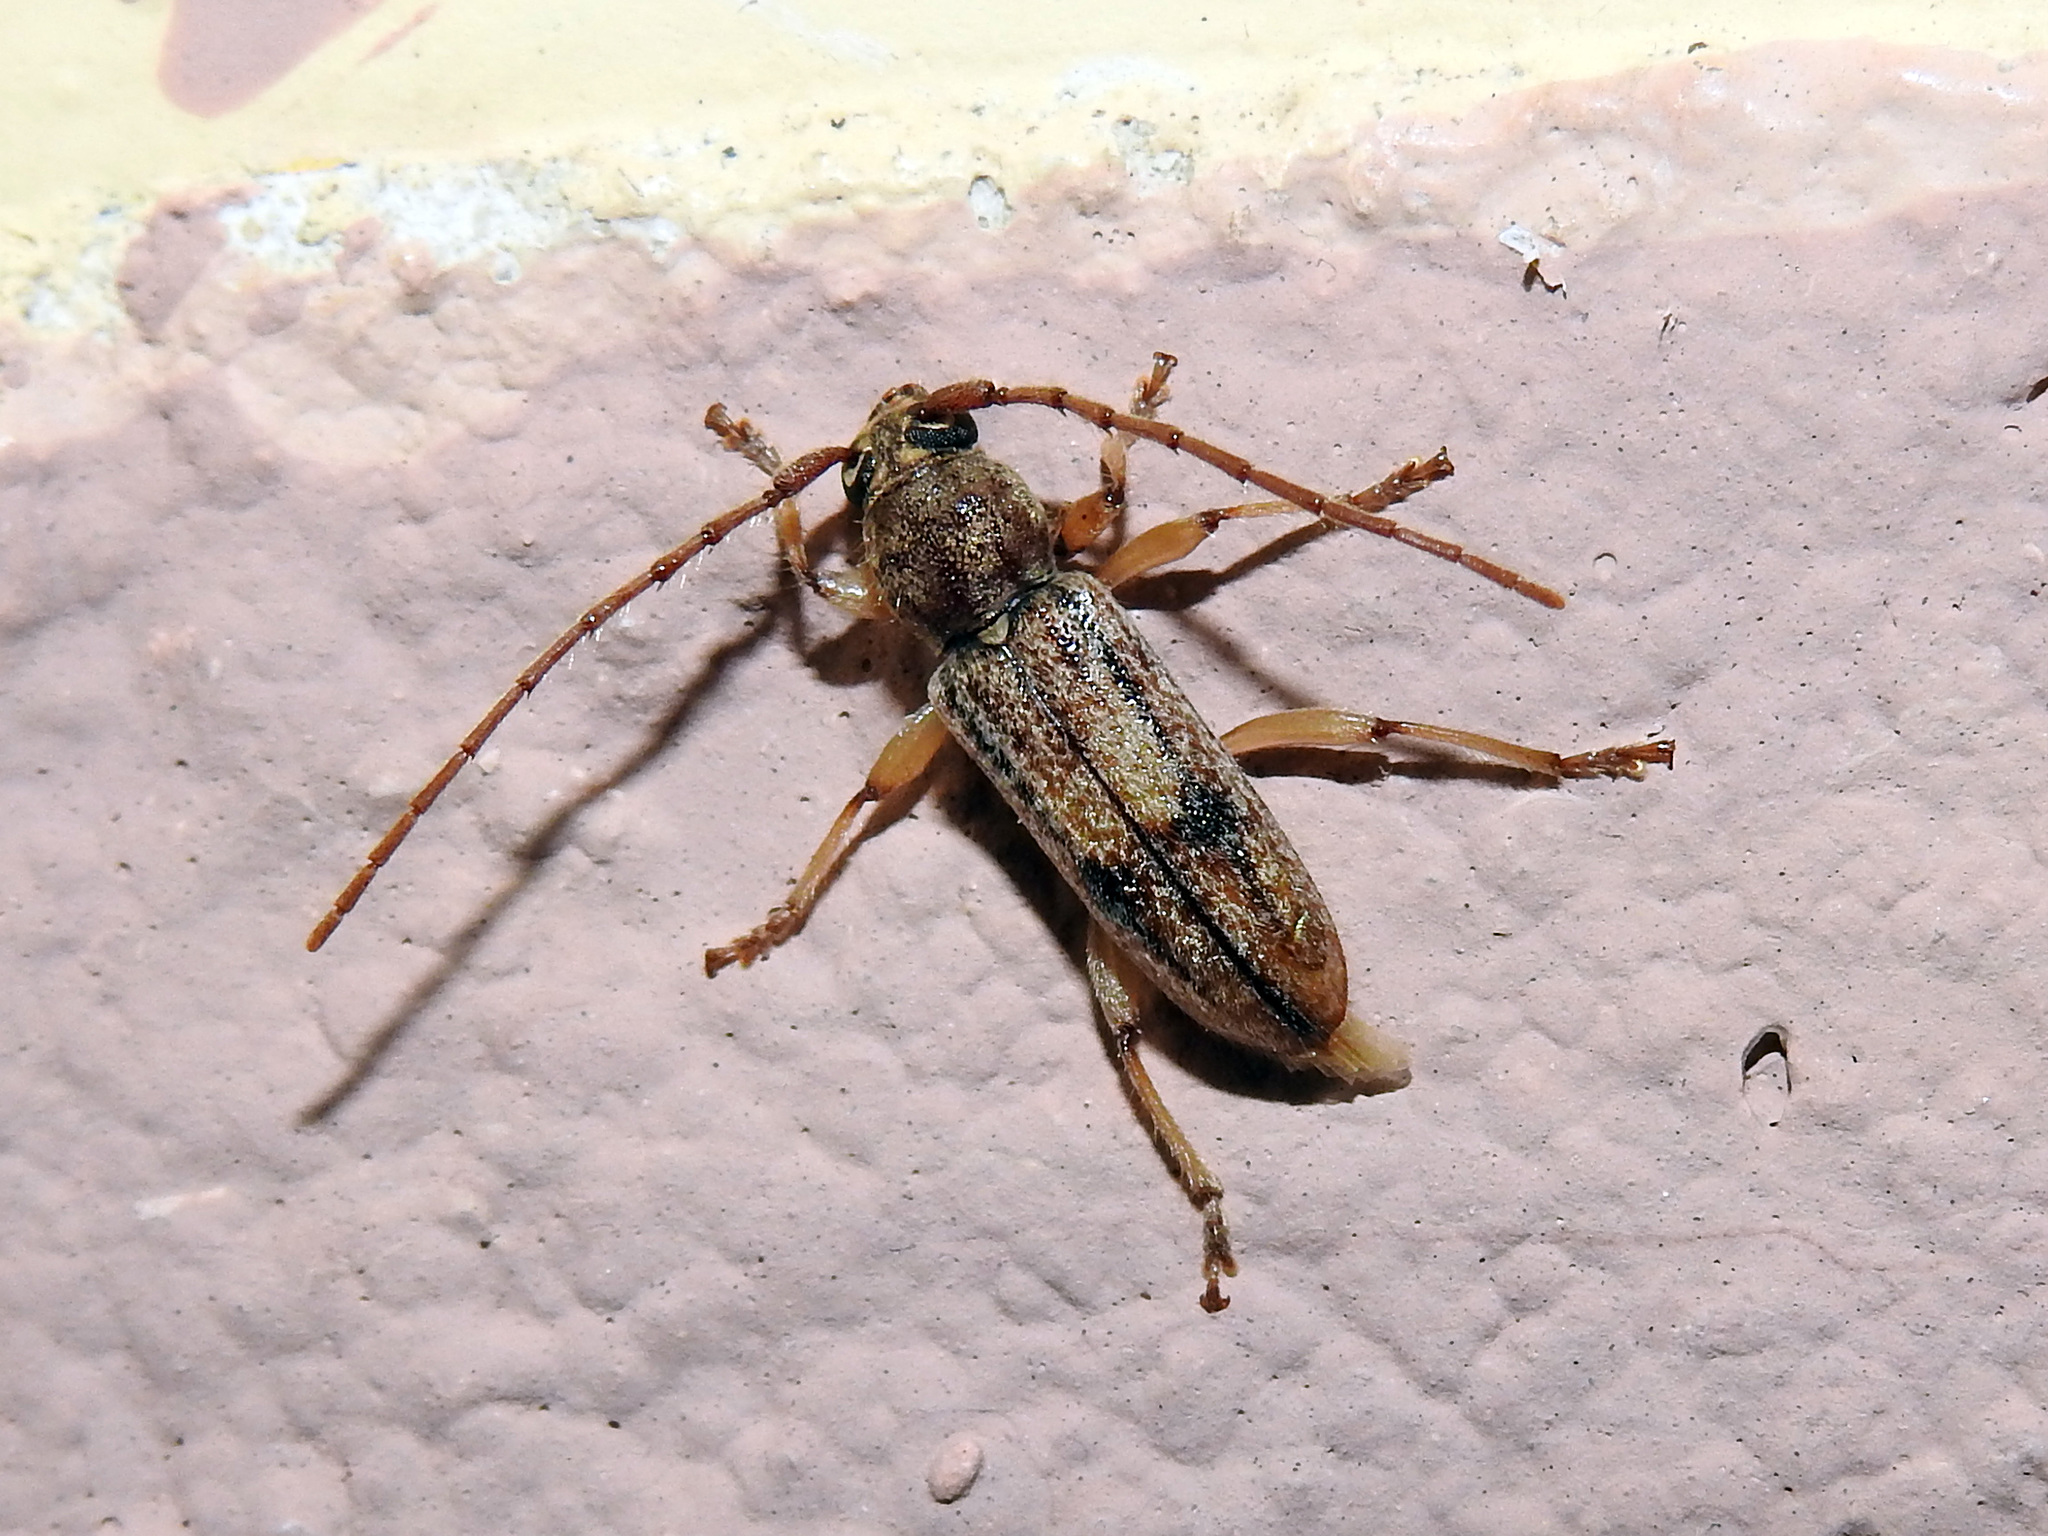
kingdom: Animalia
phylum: Arthropoda
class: Insecta
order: Coleoptera
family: Cerambycidae
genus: Anelaphus
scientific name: Anelaphus cinereus
